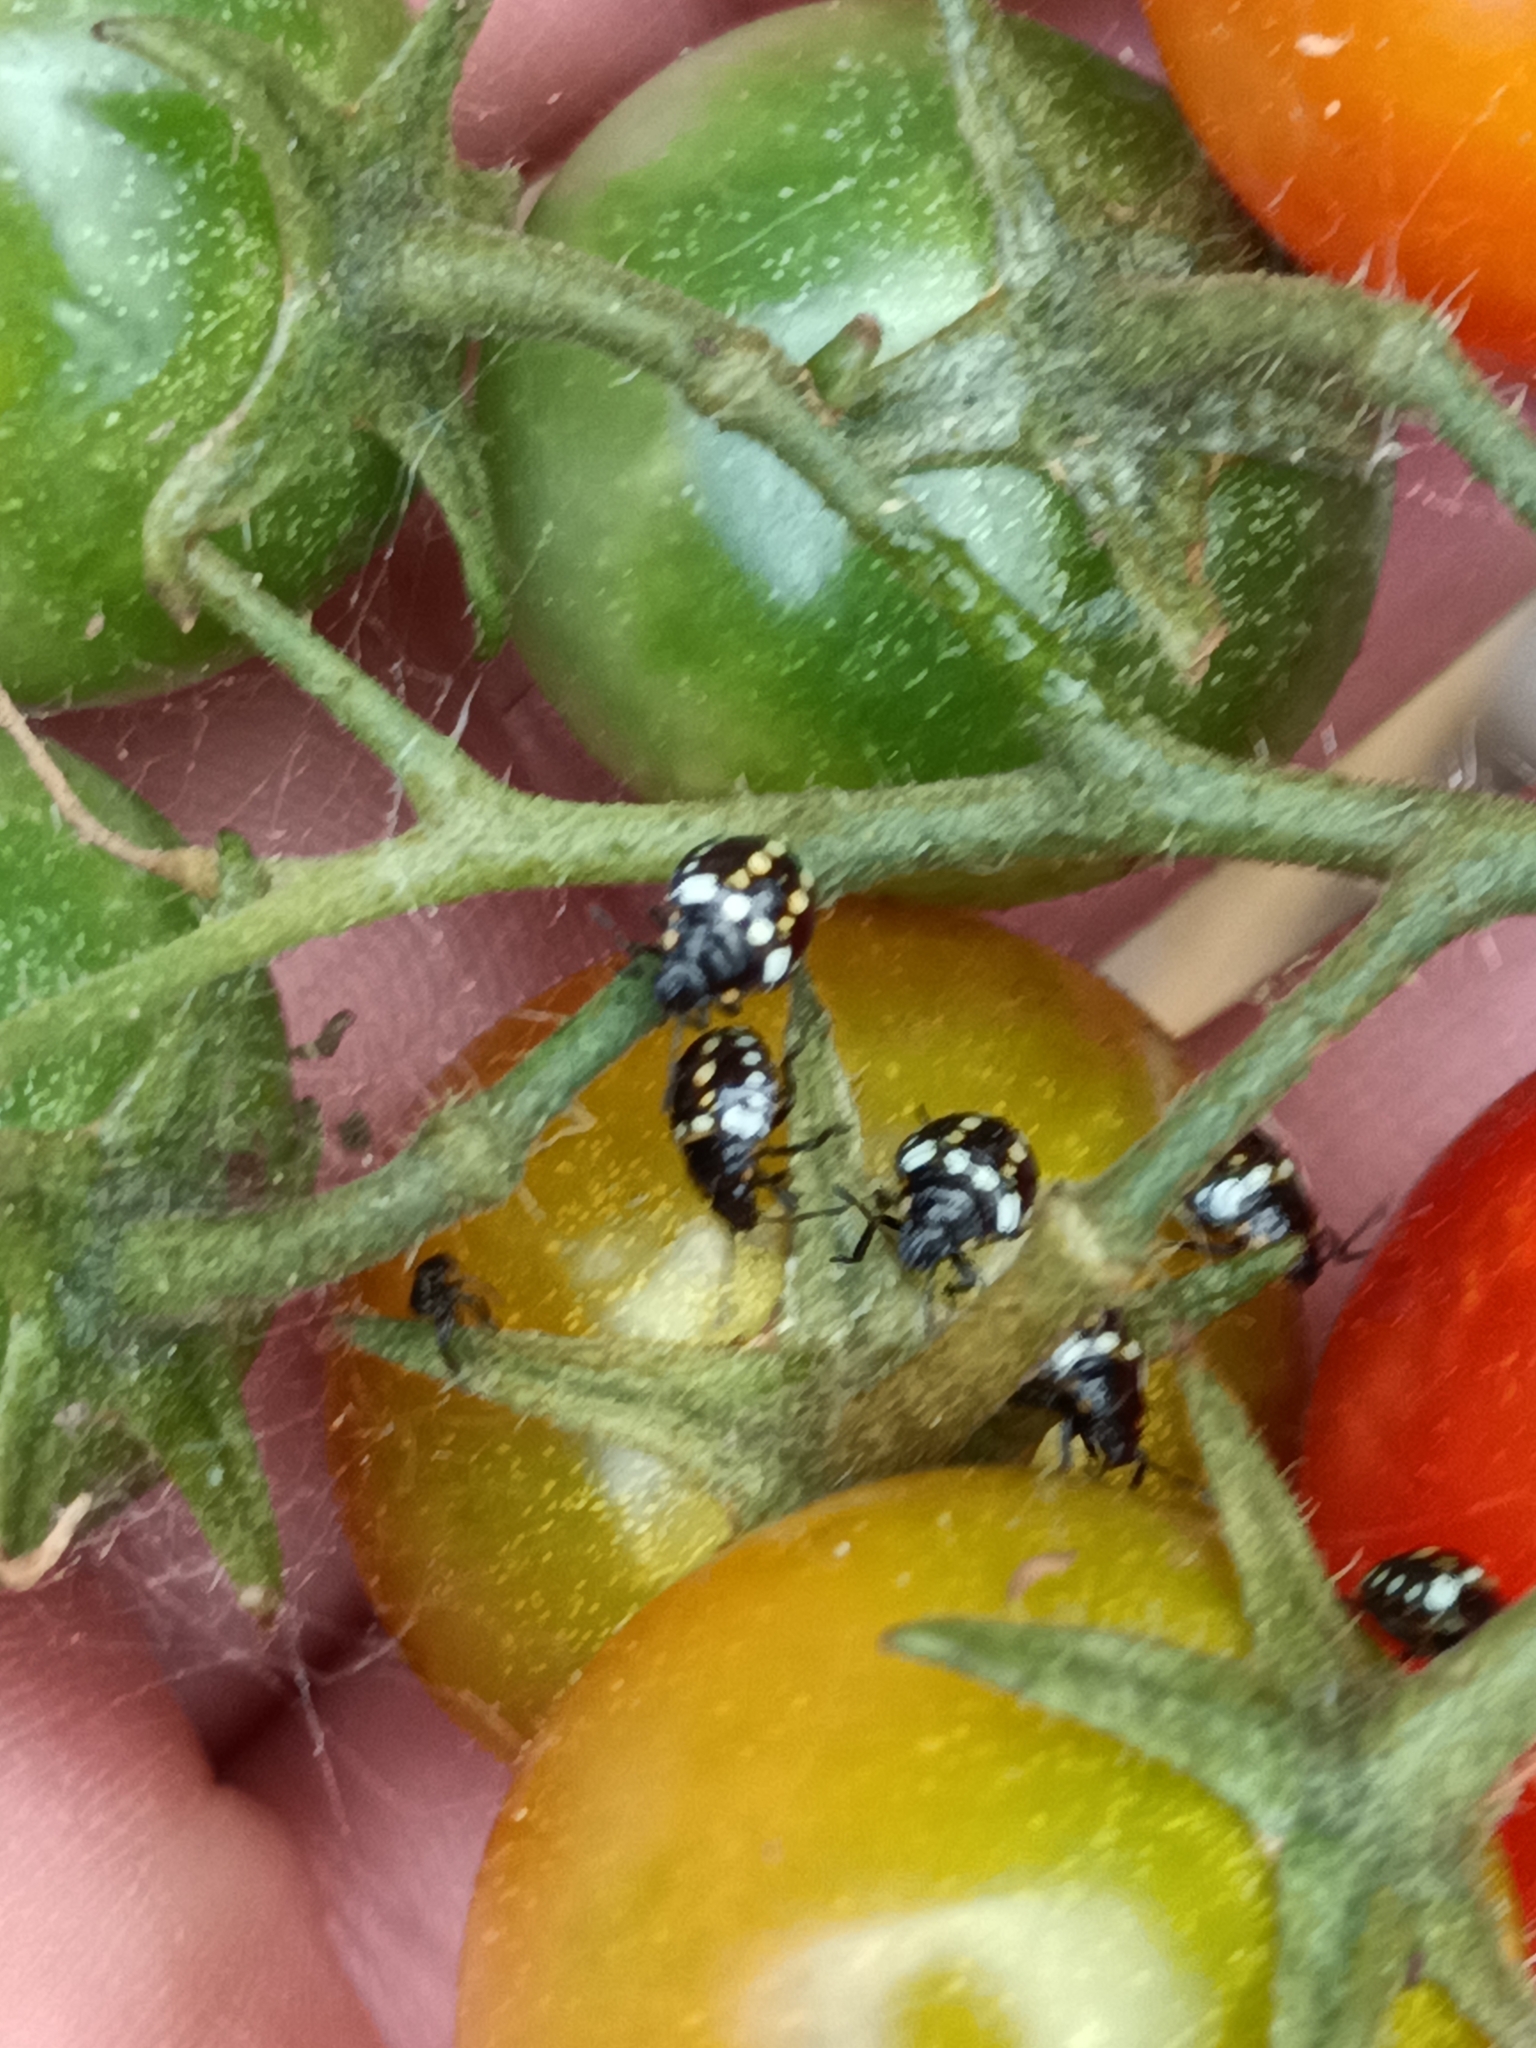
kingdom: Animalia
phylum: Arthropoda
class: Insecta
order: Hemiptera
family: Pentatomidae
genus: Nezara
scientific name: Nezara viridula
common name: Southern green stink bug
